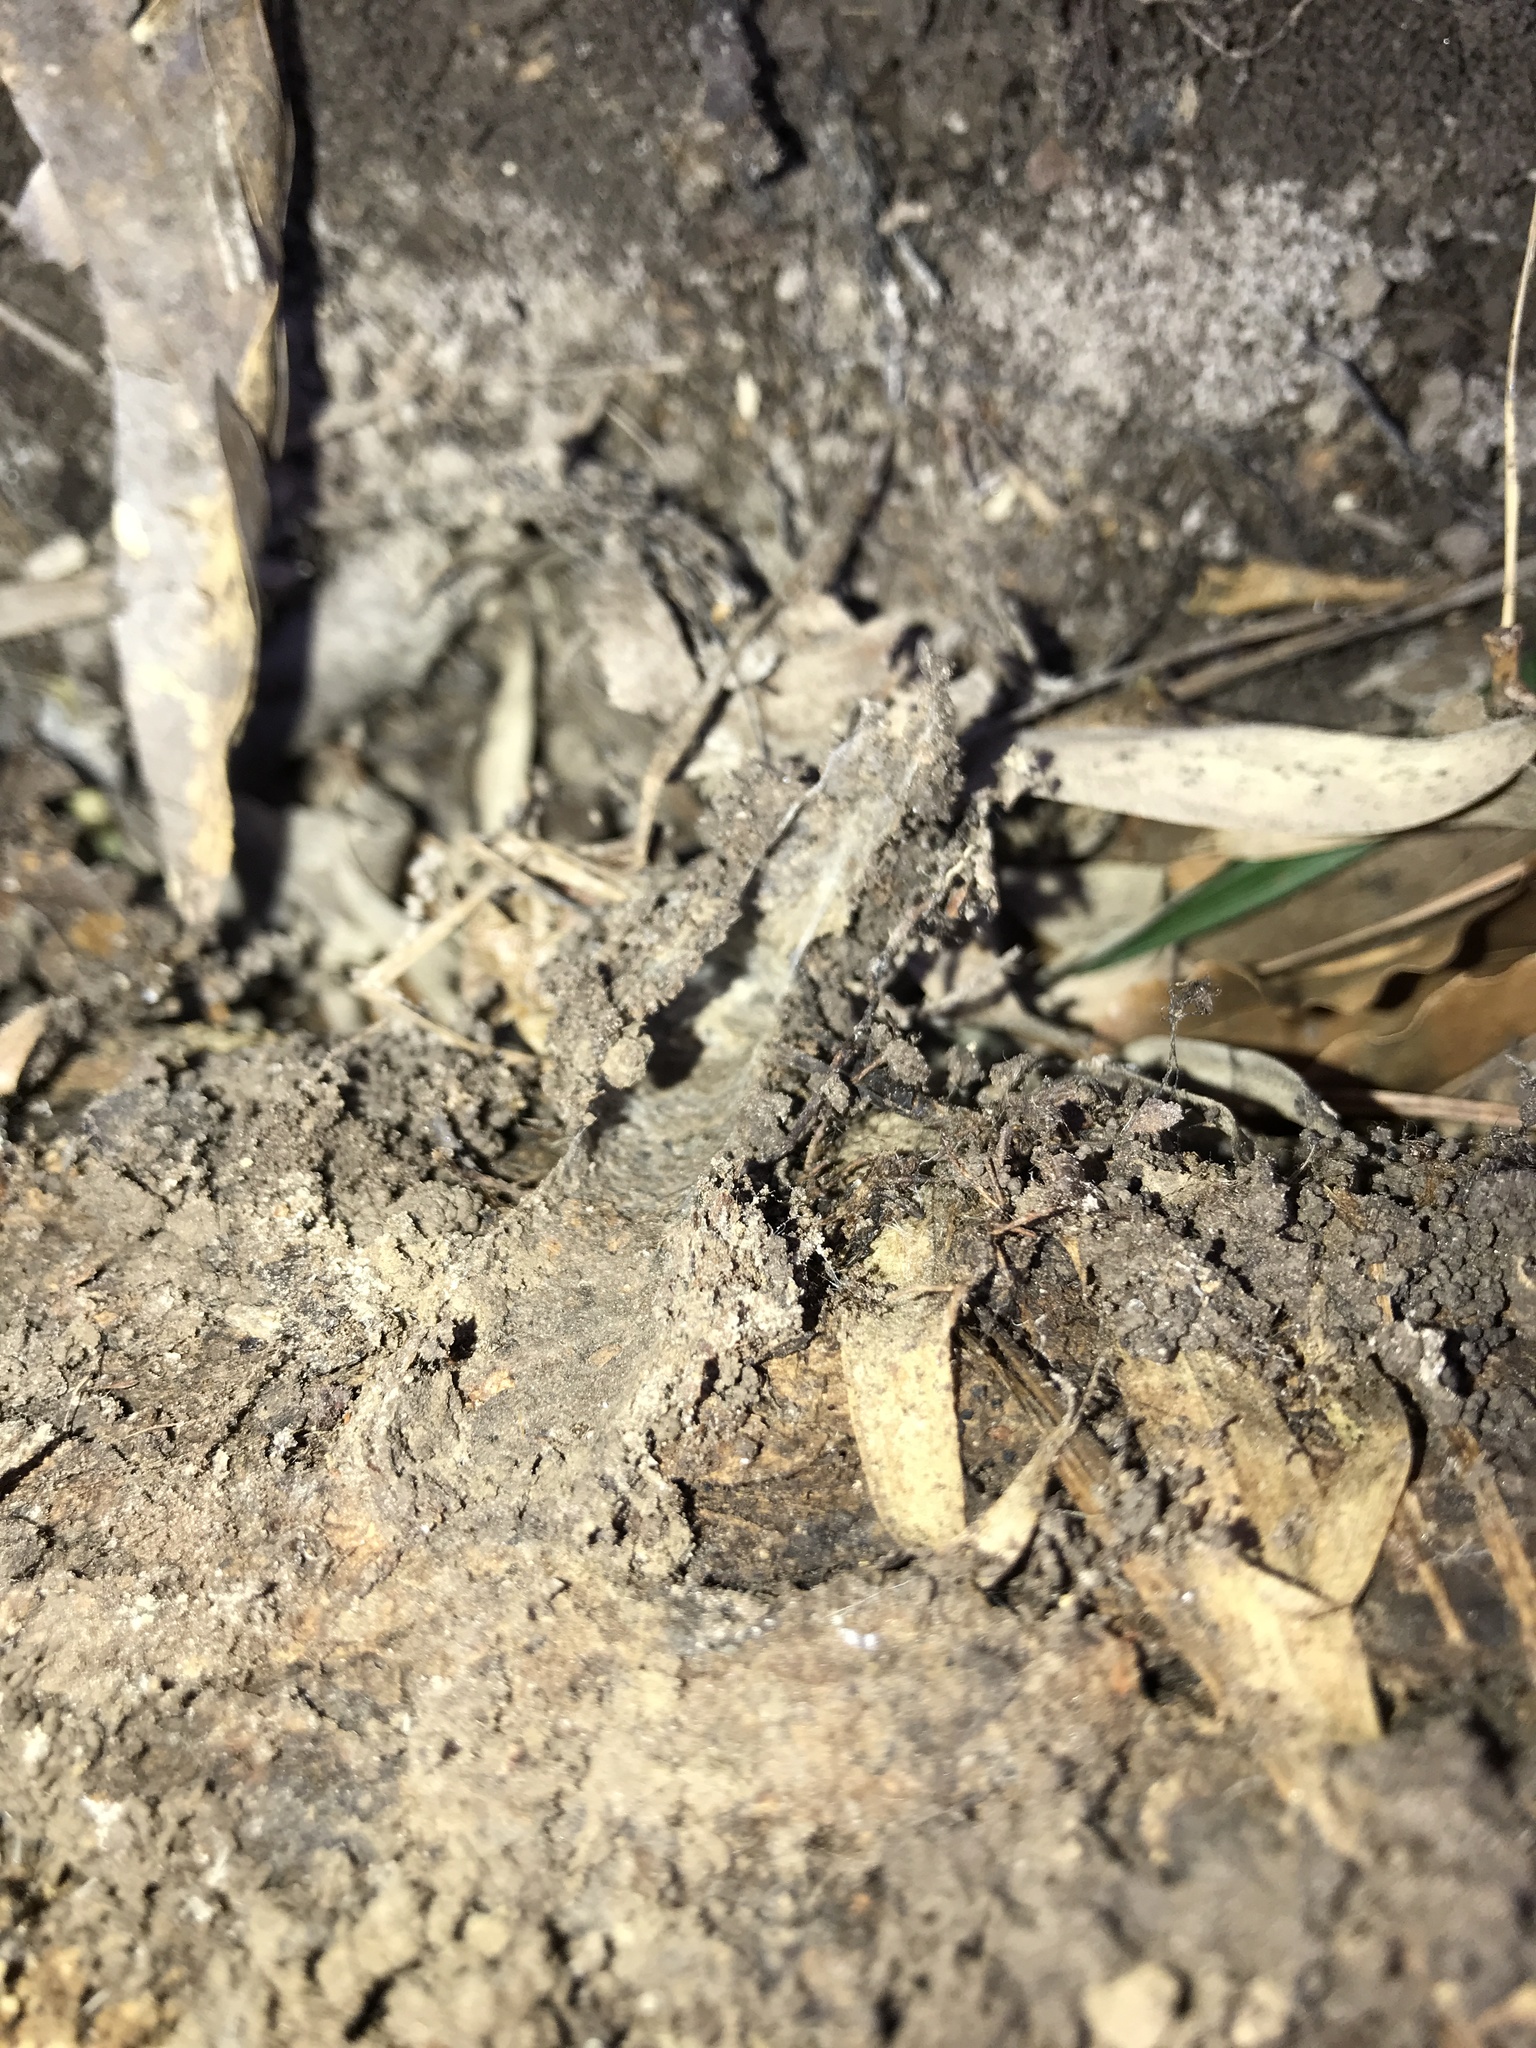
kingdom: Animalia
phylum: Arthropoda
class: Arachnida
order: Araneae
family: Euctenizidae
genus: Myrmekiaphila
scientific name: Myrmekiaphila comstocki
